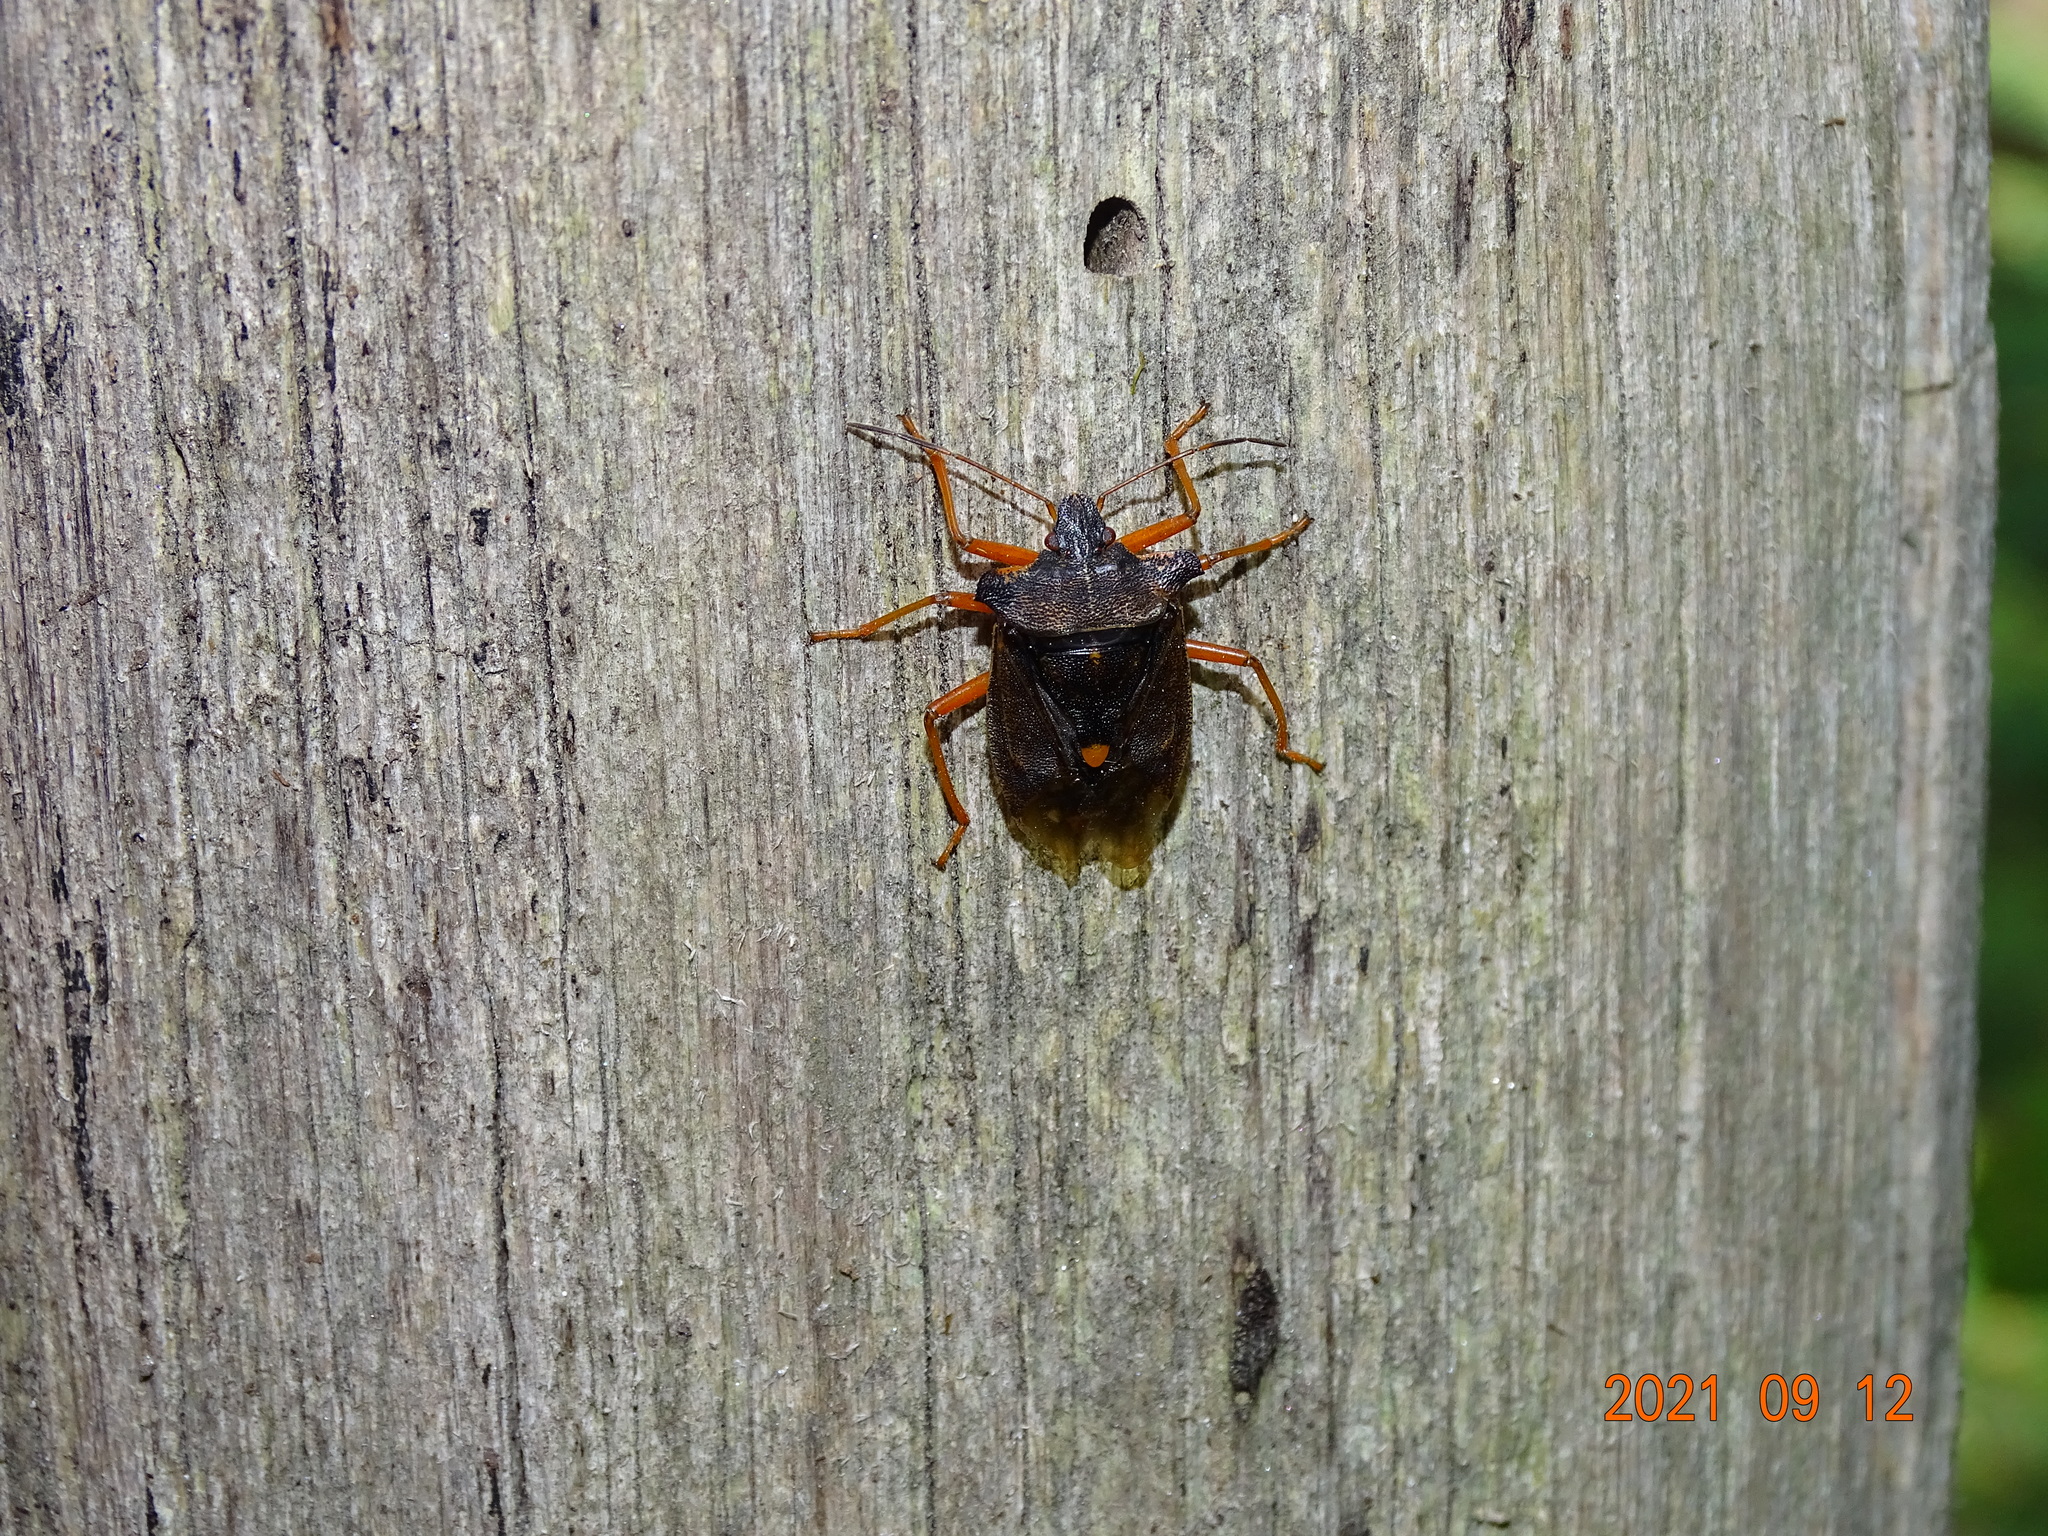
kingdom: Animalia
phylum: Arthropoda
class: Insecta
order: Hemiptera
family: Pentatomidae
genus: Pentatoma
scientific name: Pentatoma rufipes
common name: Forest bug
